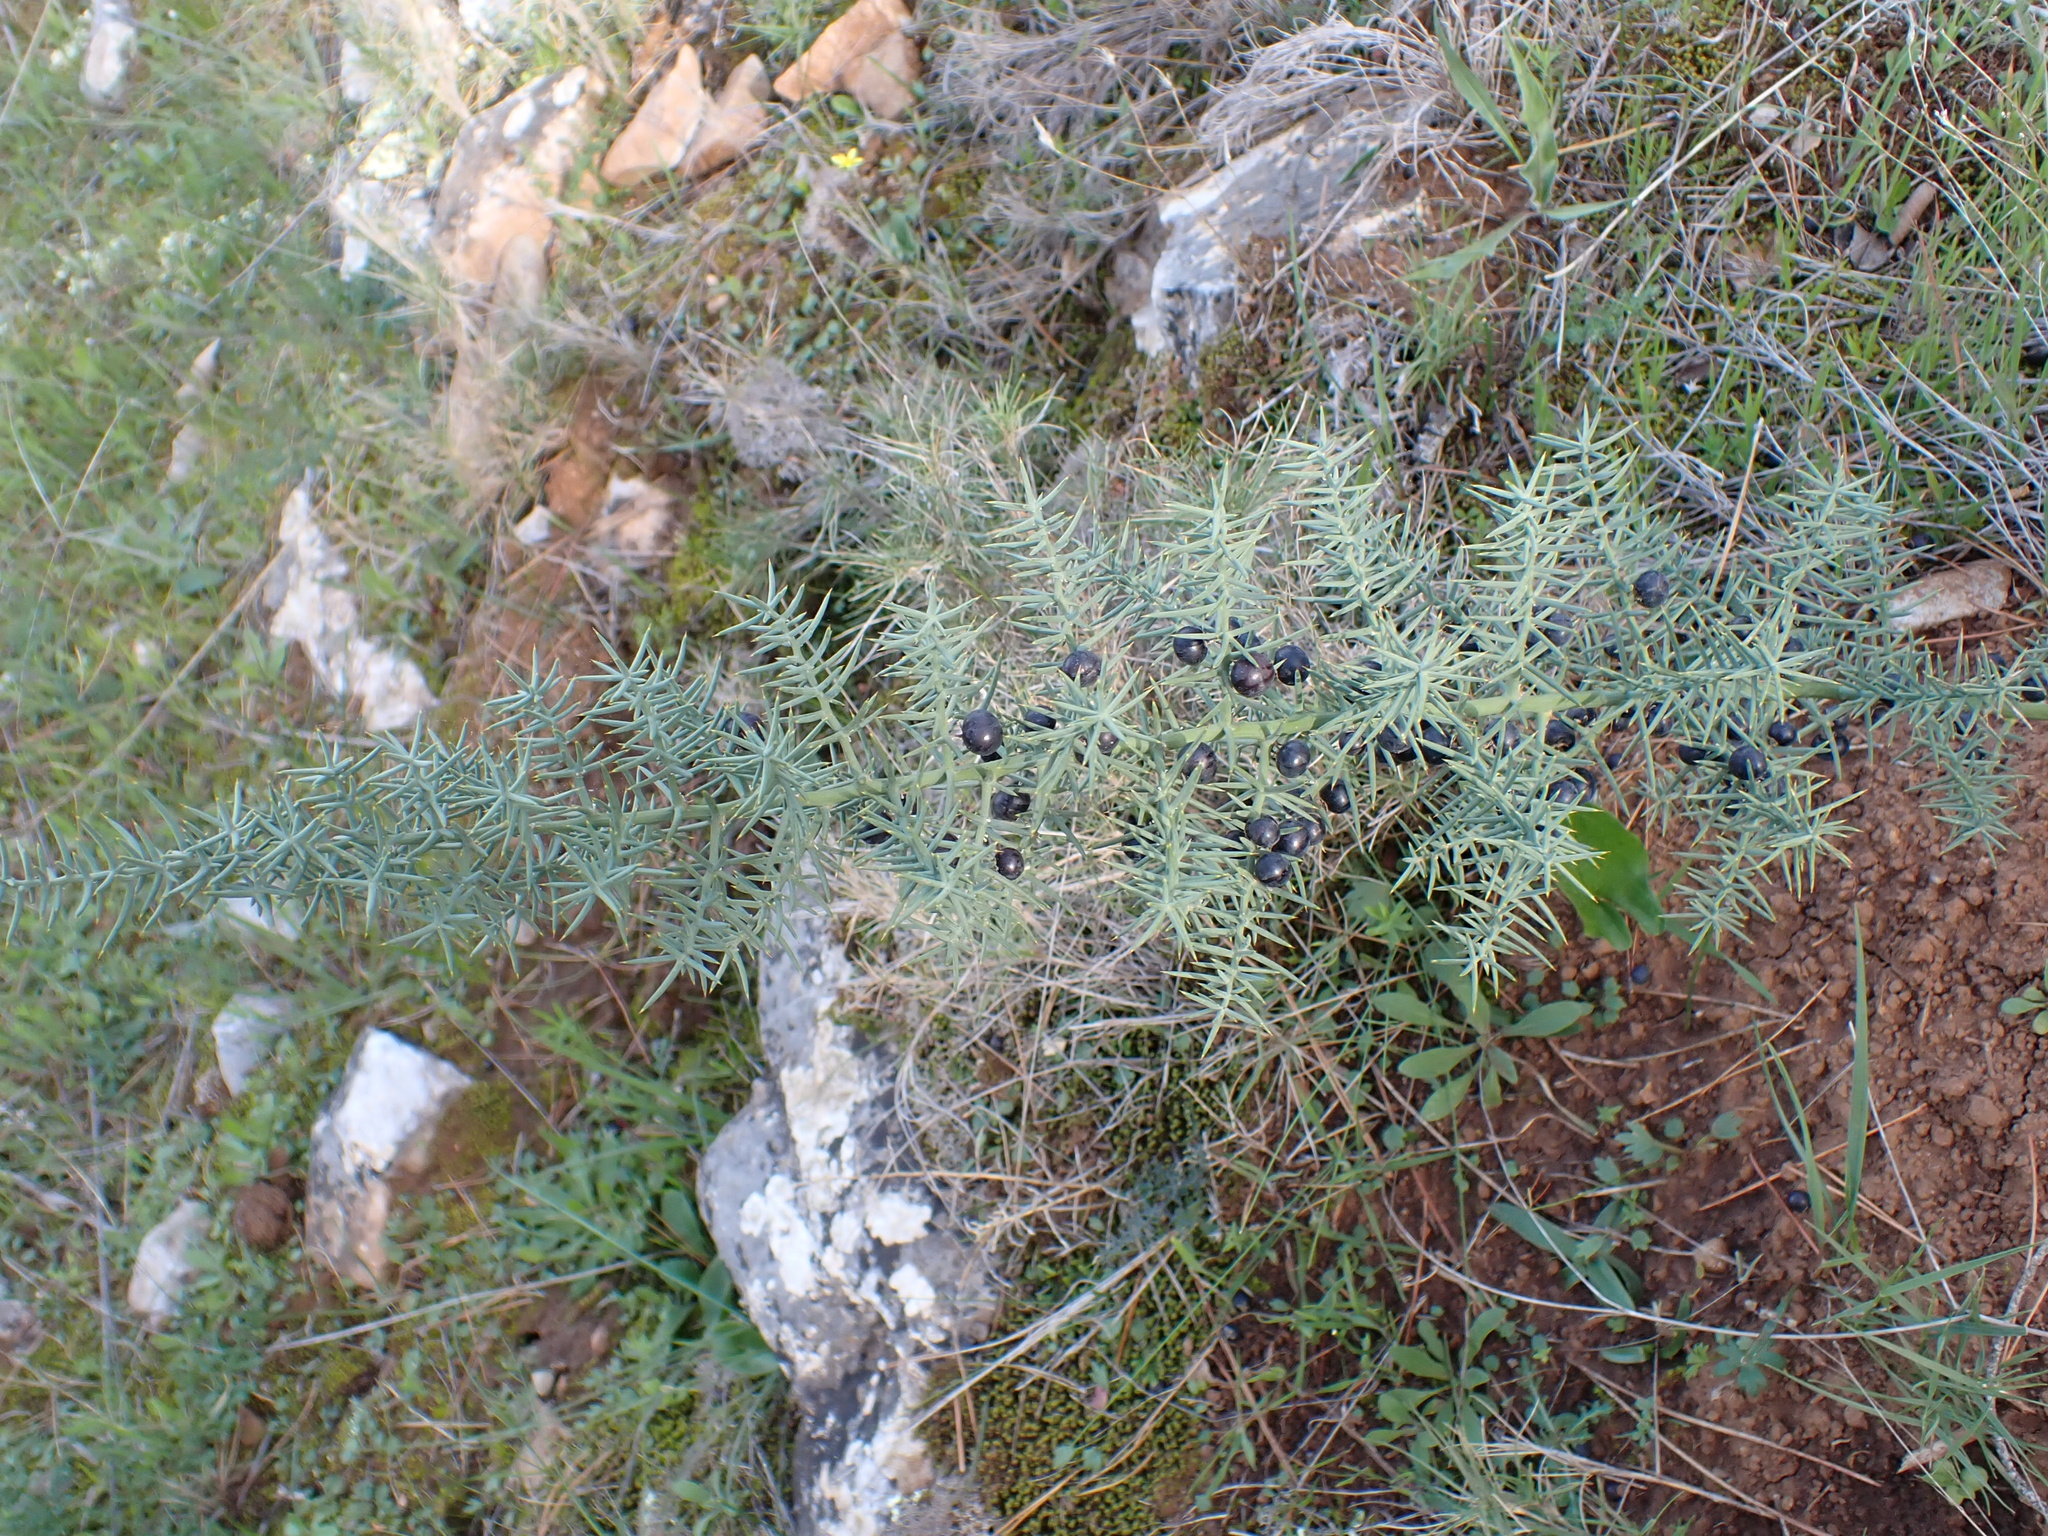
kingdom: Plantae
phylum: Tracheophyta
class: Liliopsida
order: Asparagales
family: Asparagaceae
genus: Asparagus
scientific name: Asparagus horridus
